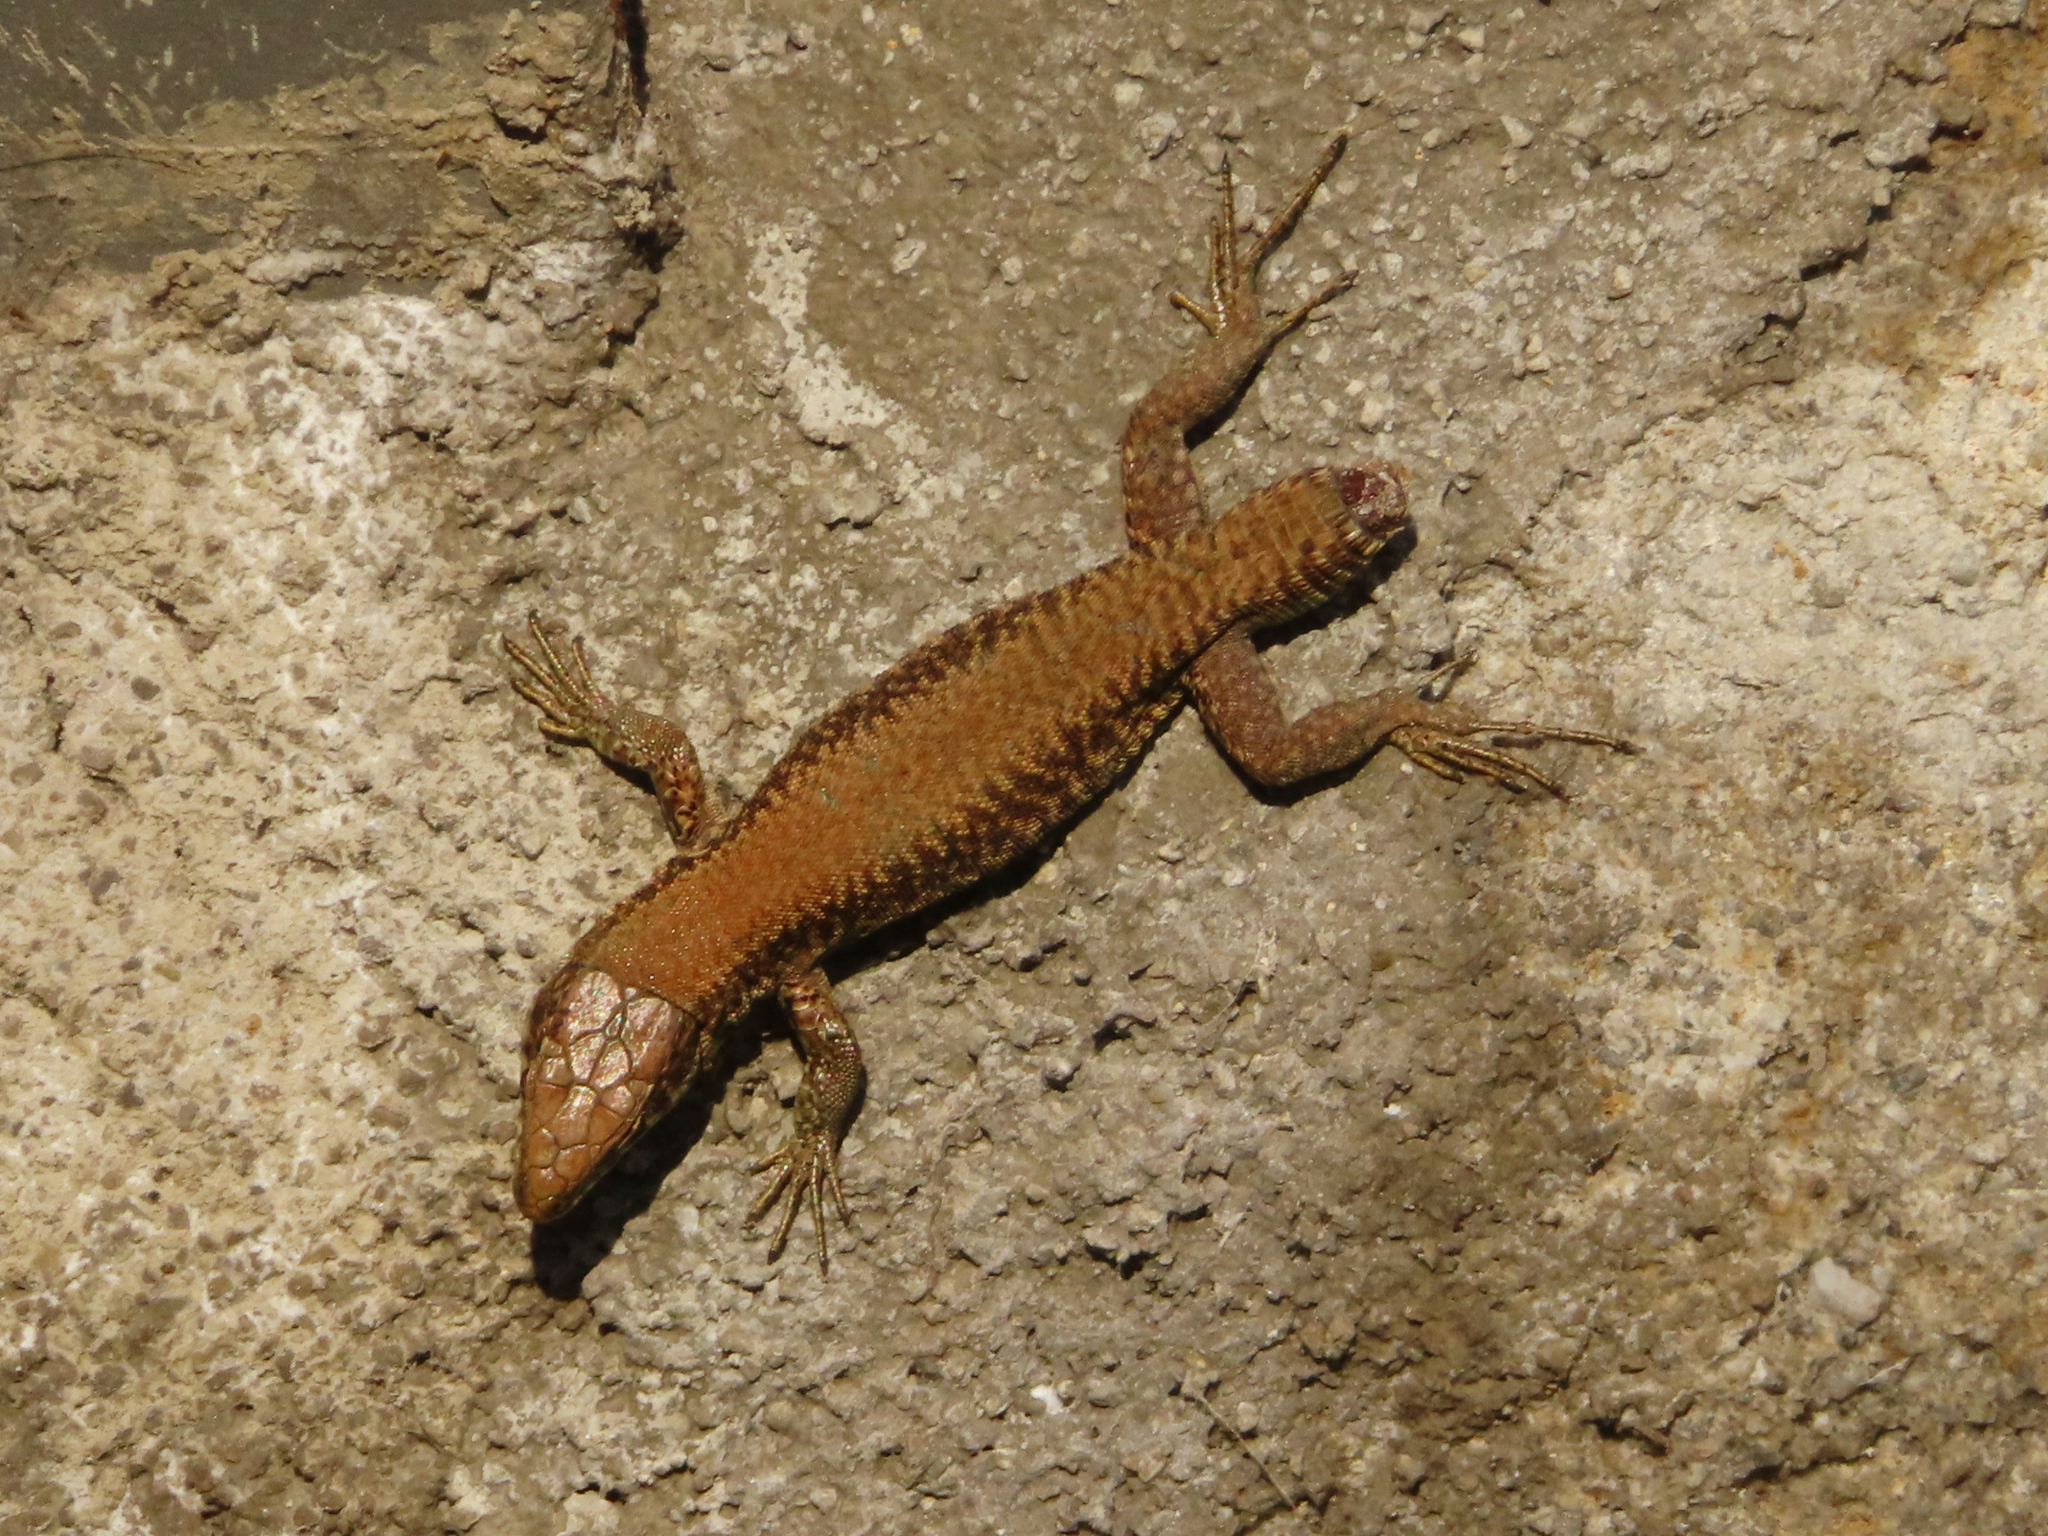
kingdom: Animalia
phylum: Chordata
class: Squamata
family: Lacertidae
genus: Podarcis
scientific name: Podarcis muralis
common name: Common wall lizard
